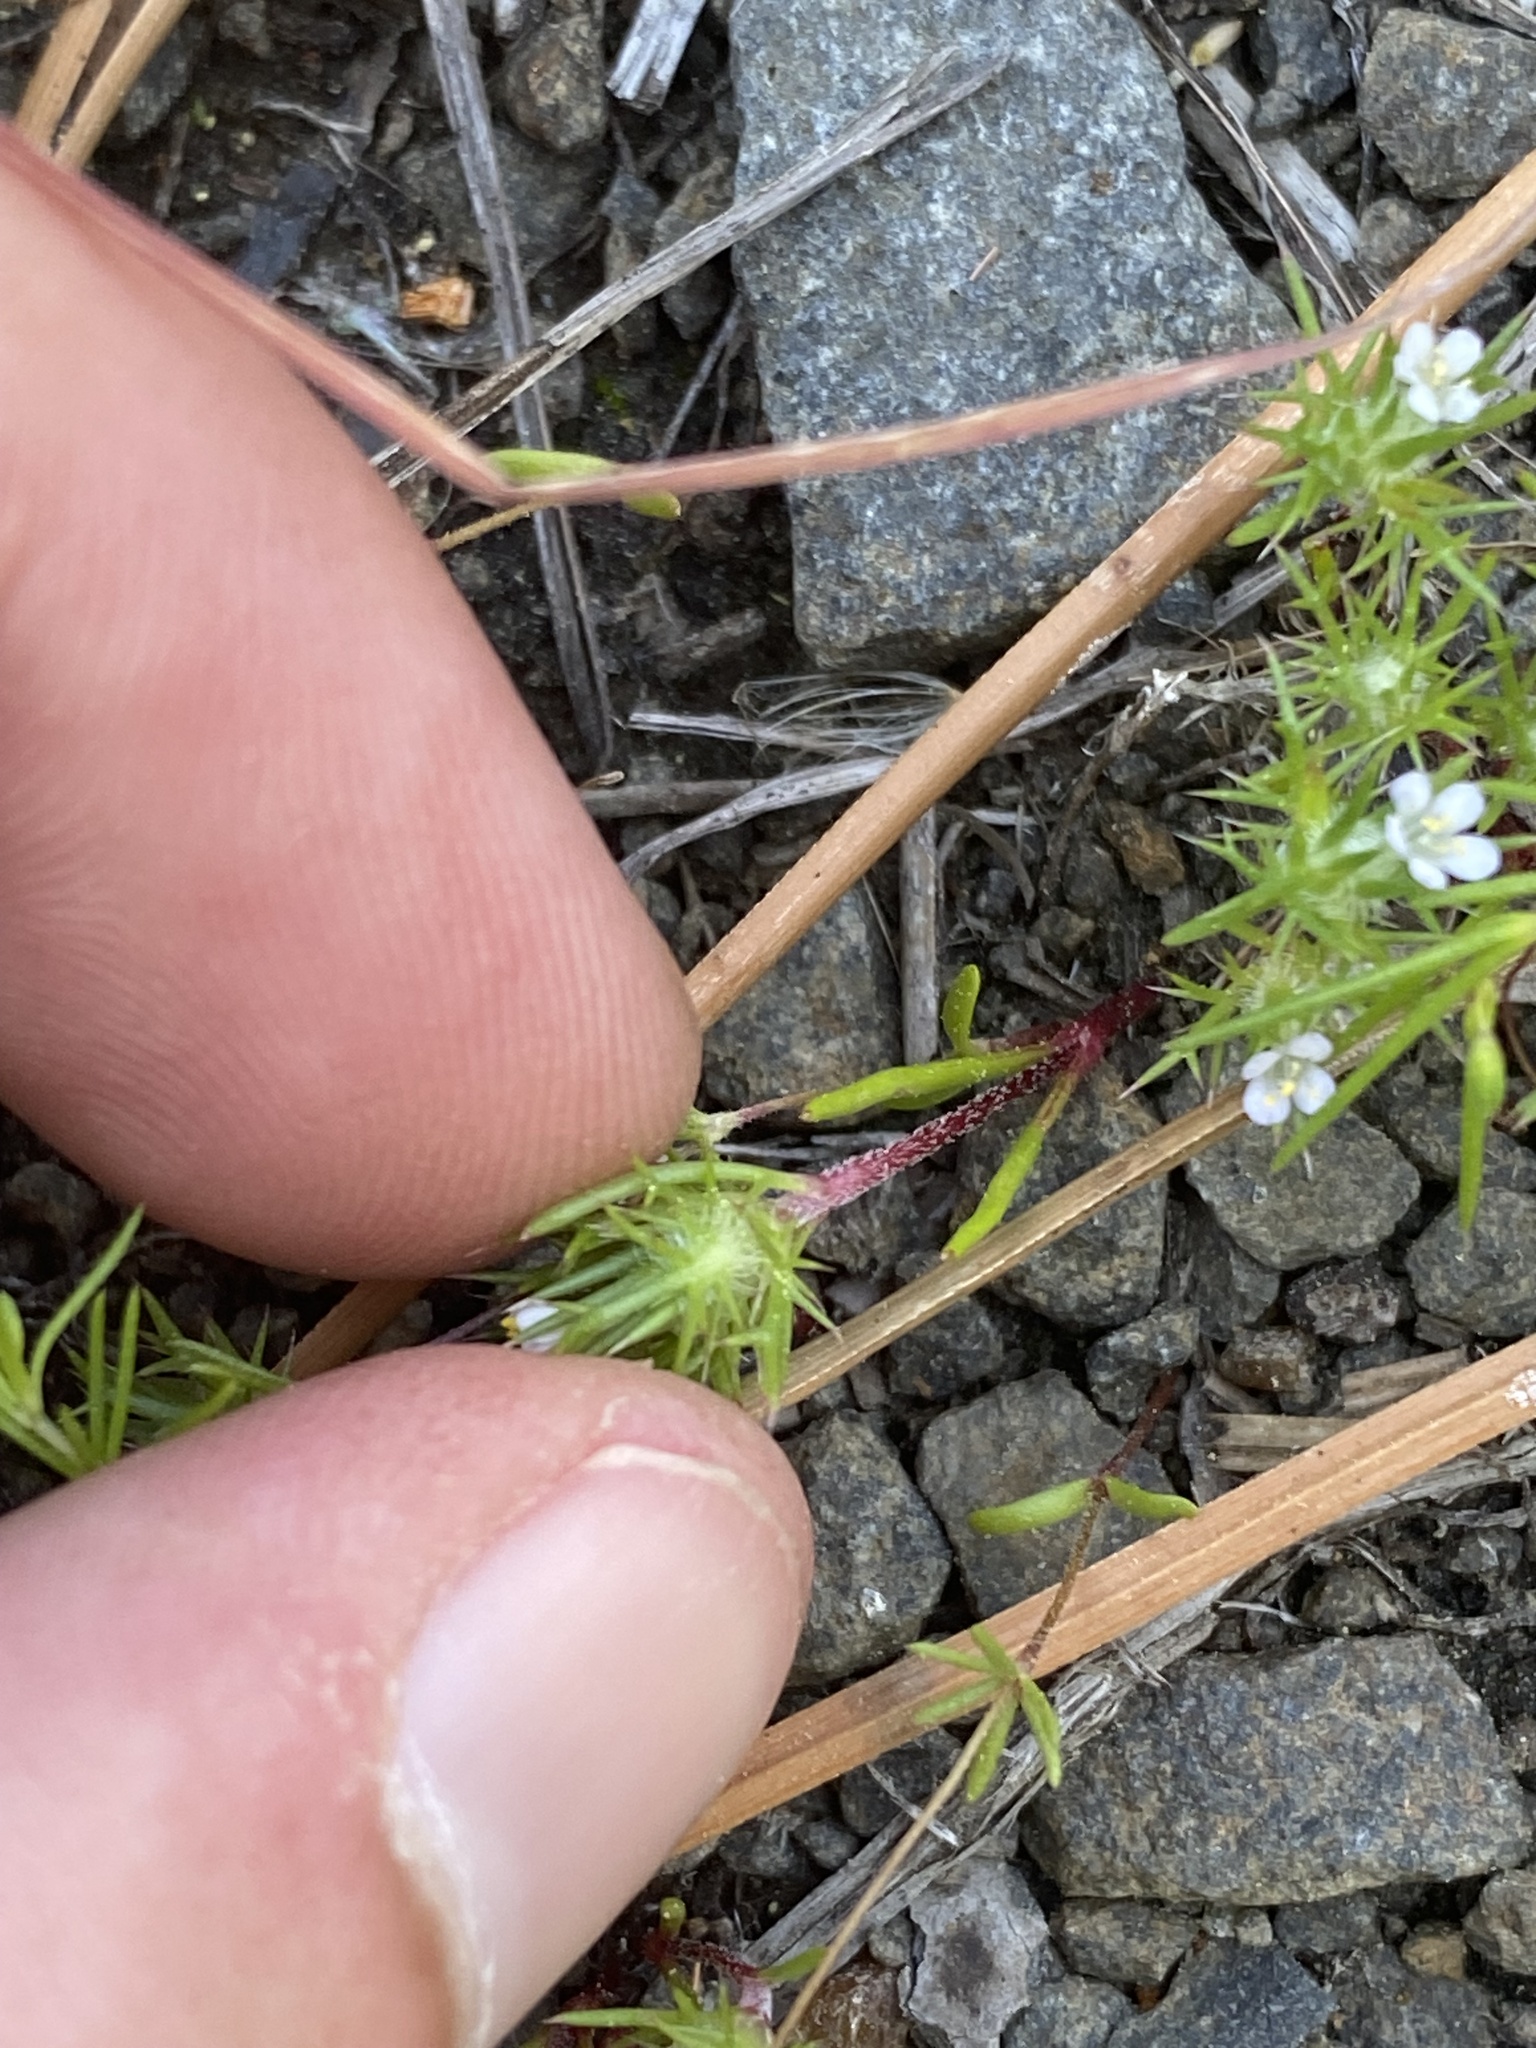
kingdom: Plantae
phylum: Tracheophyta
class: Magnoliopsida
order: Ericales
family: Polemoniaceae
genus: Navarretia
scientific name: Navarretia intertexta
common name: Needle-leaved navarretia
